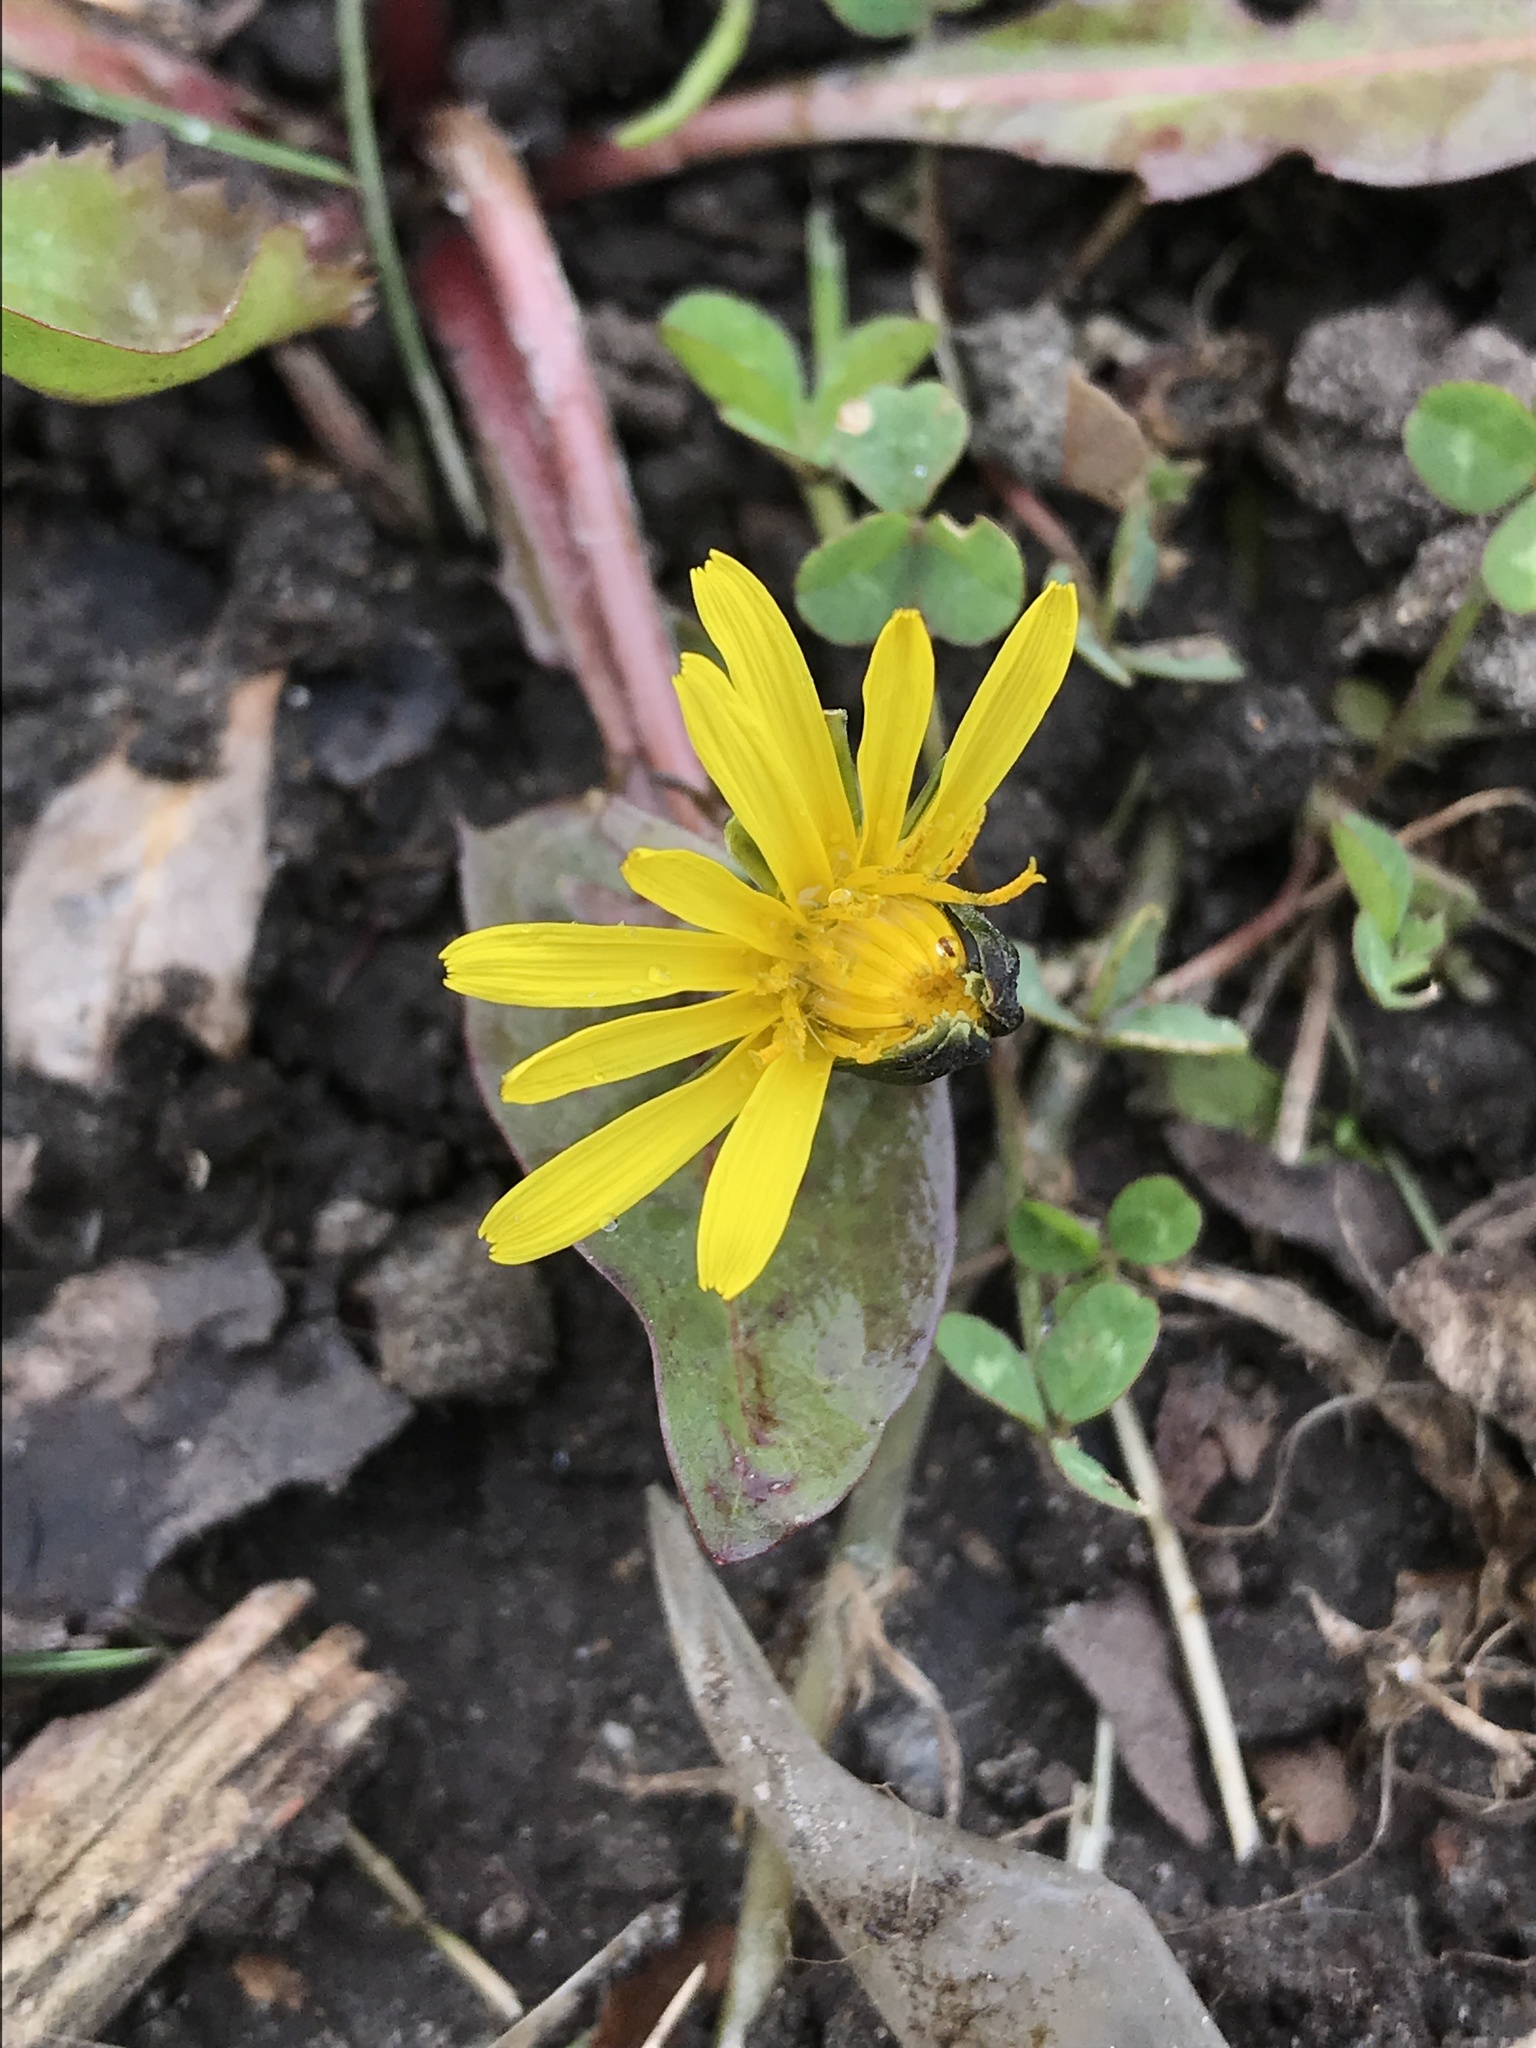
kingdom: Plantae
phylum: Tracheophyta
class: Magnoliopsida
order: Asterales
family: Asteraceae
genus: Taraxacum
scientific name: Taraxacum officinale
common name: Common dandelion
